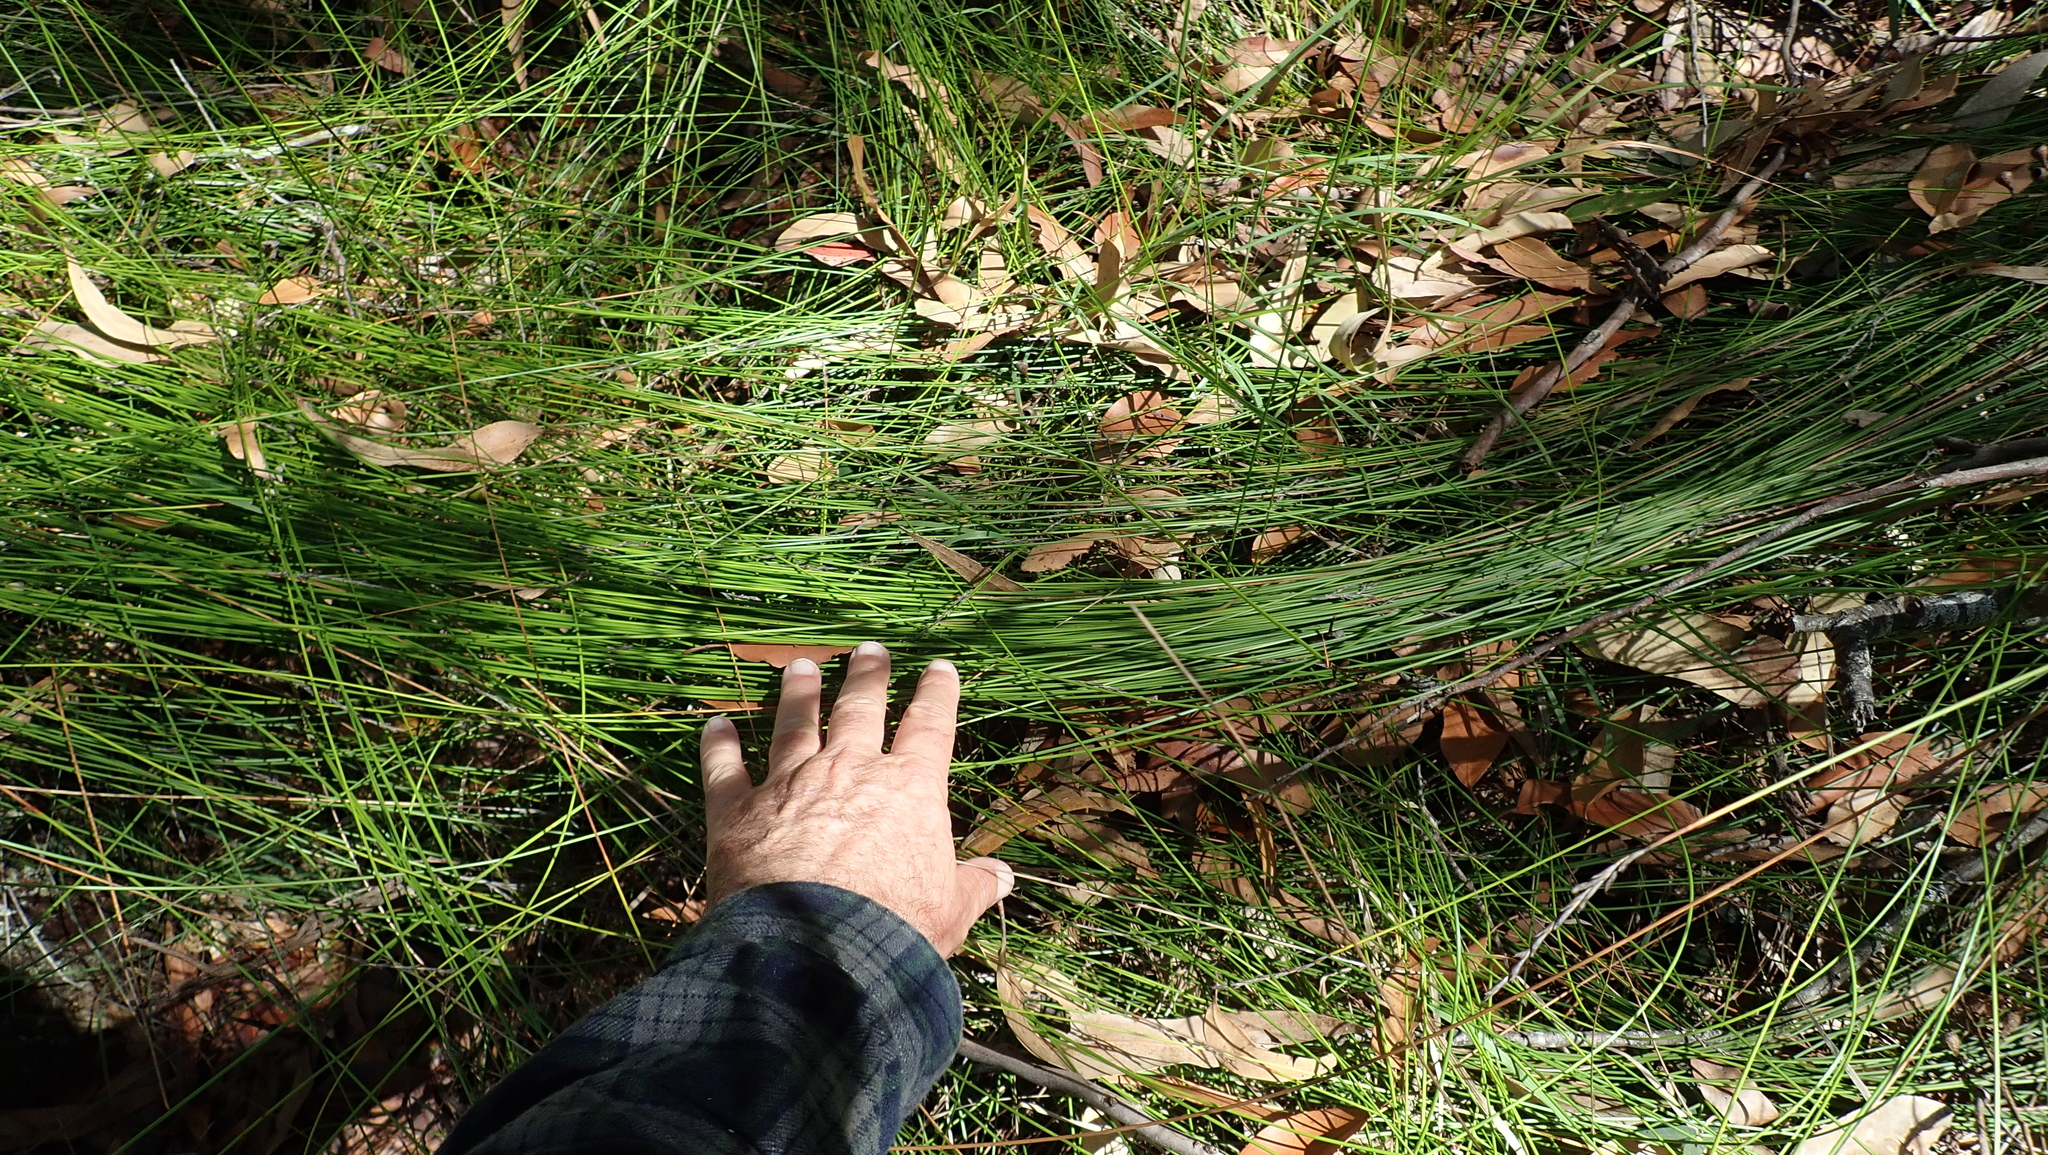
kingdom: Plantae
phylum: Tracheophyta
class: Liliopsida
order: Poales
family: Cyperaceae
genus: Lepidosperma
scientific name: Lepidosperma urophorum
